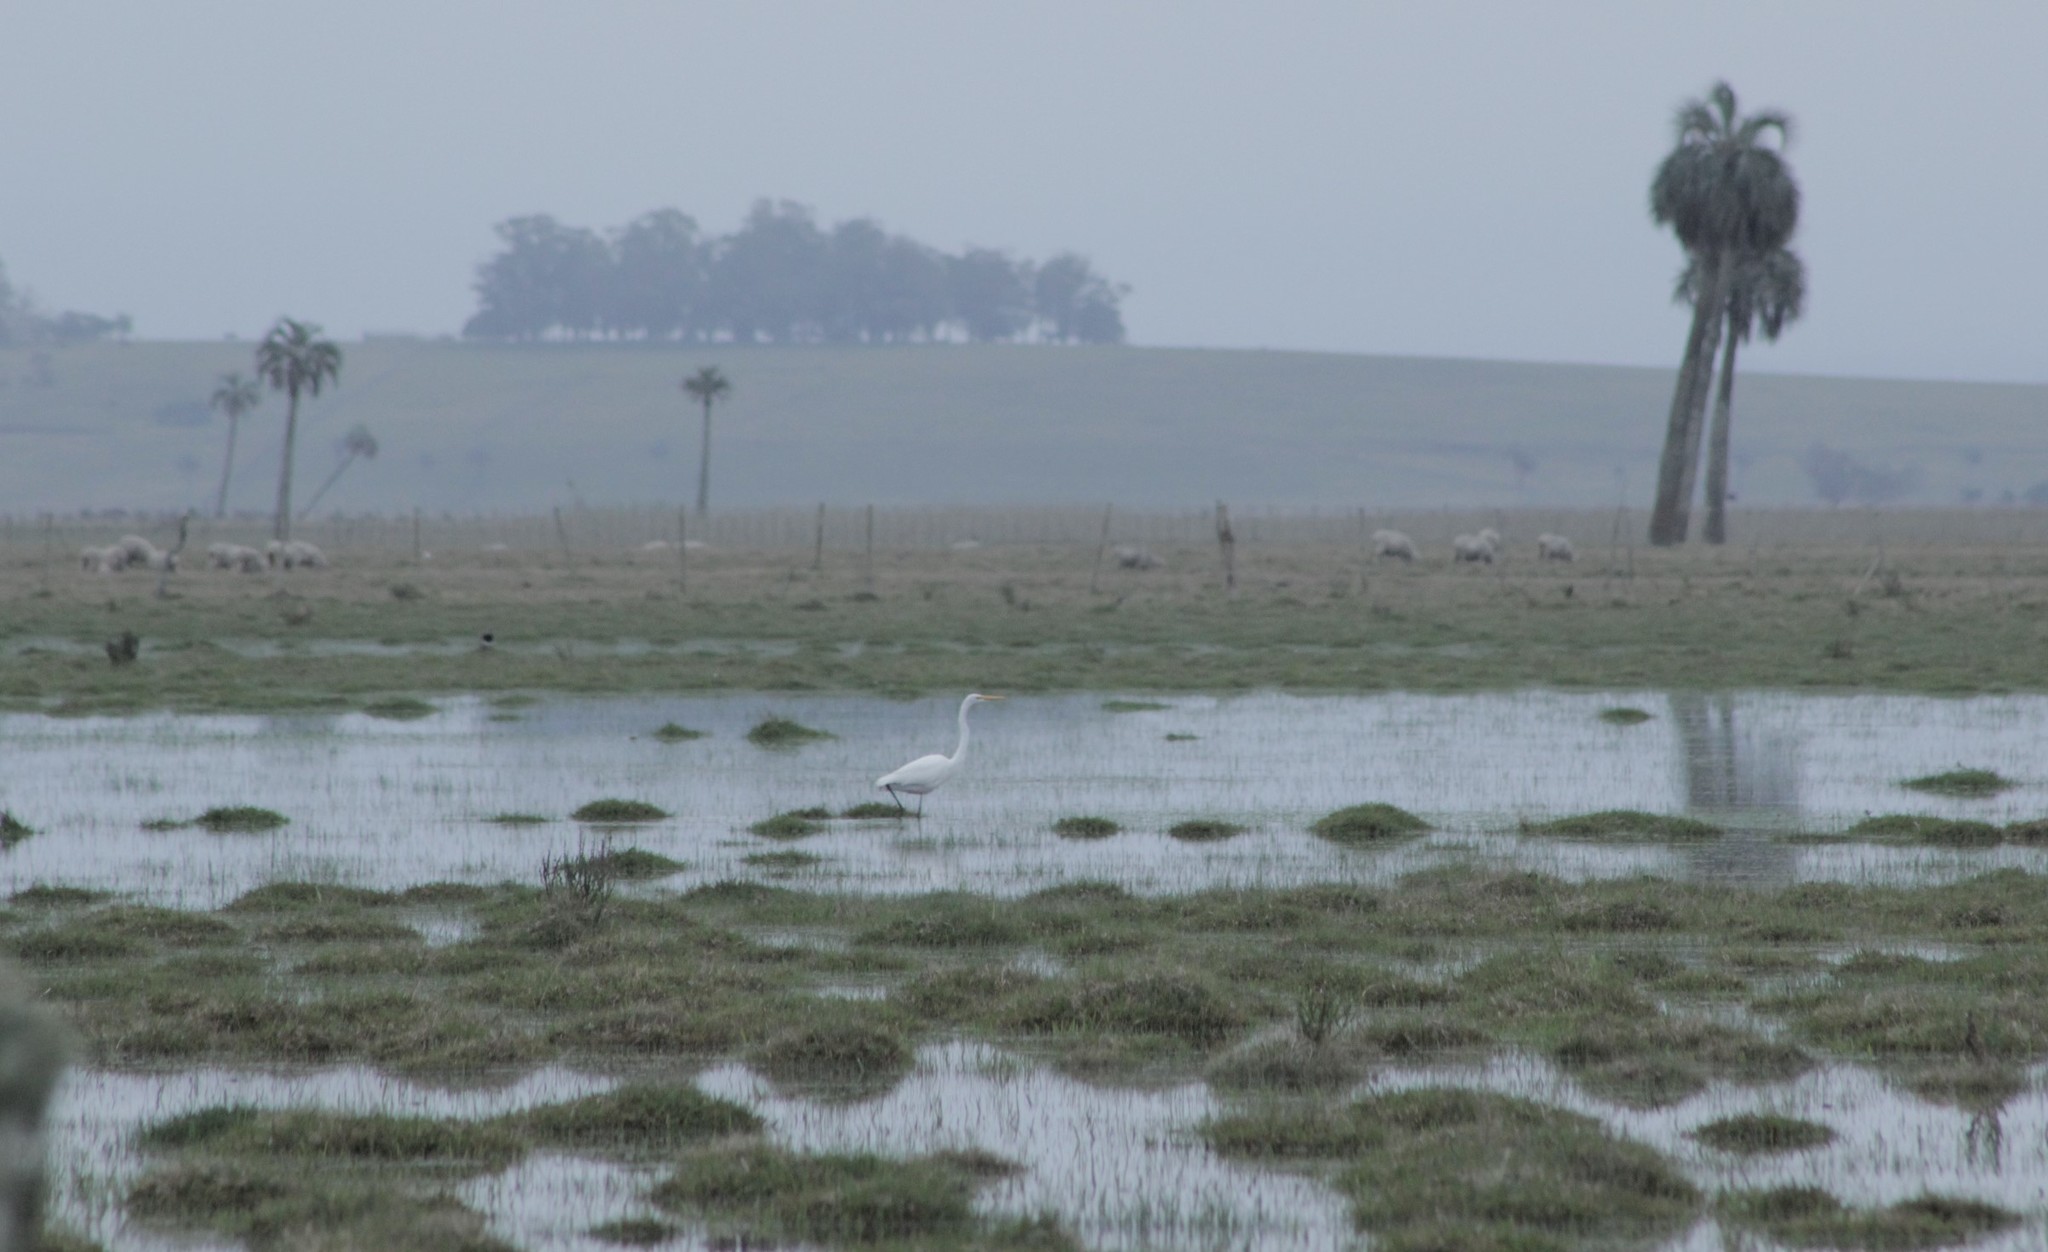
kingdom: Animalia
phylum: Chordata
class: Aves
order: Pelecaniformes
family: Ardeidae
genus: Ardea
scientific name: Ardea alba
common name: Great egret
